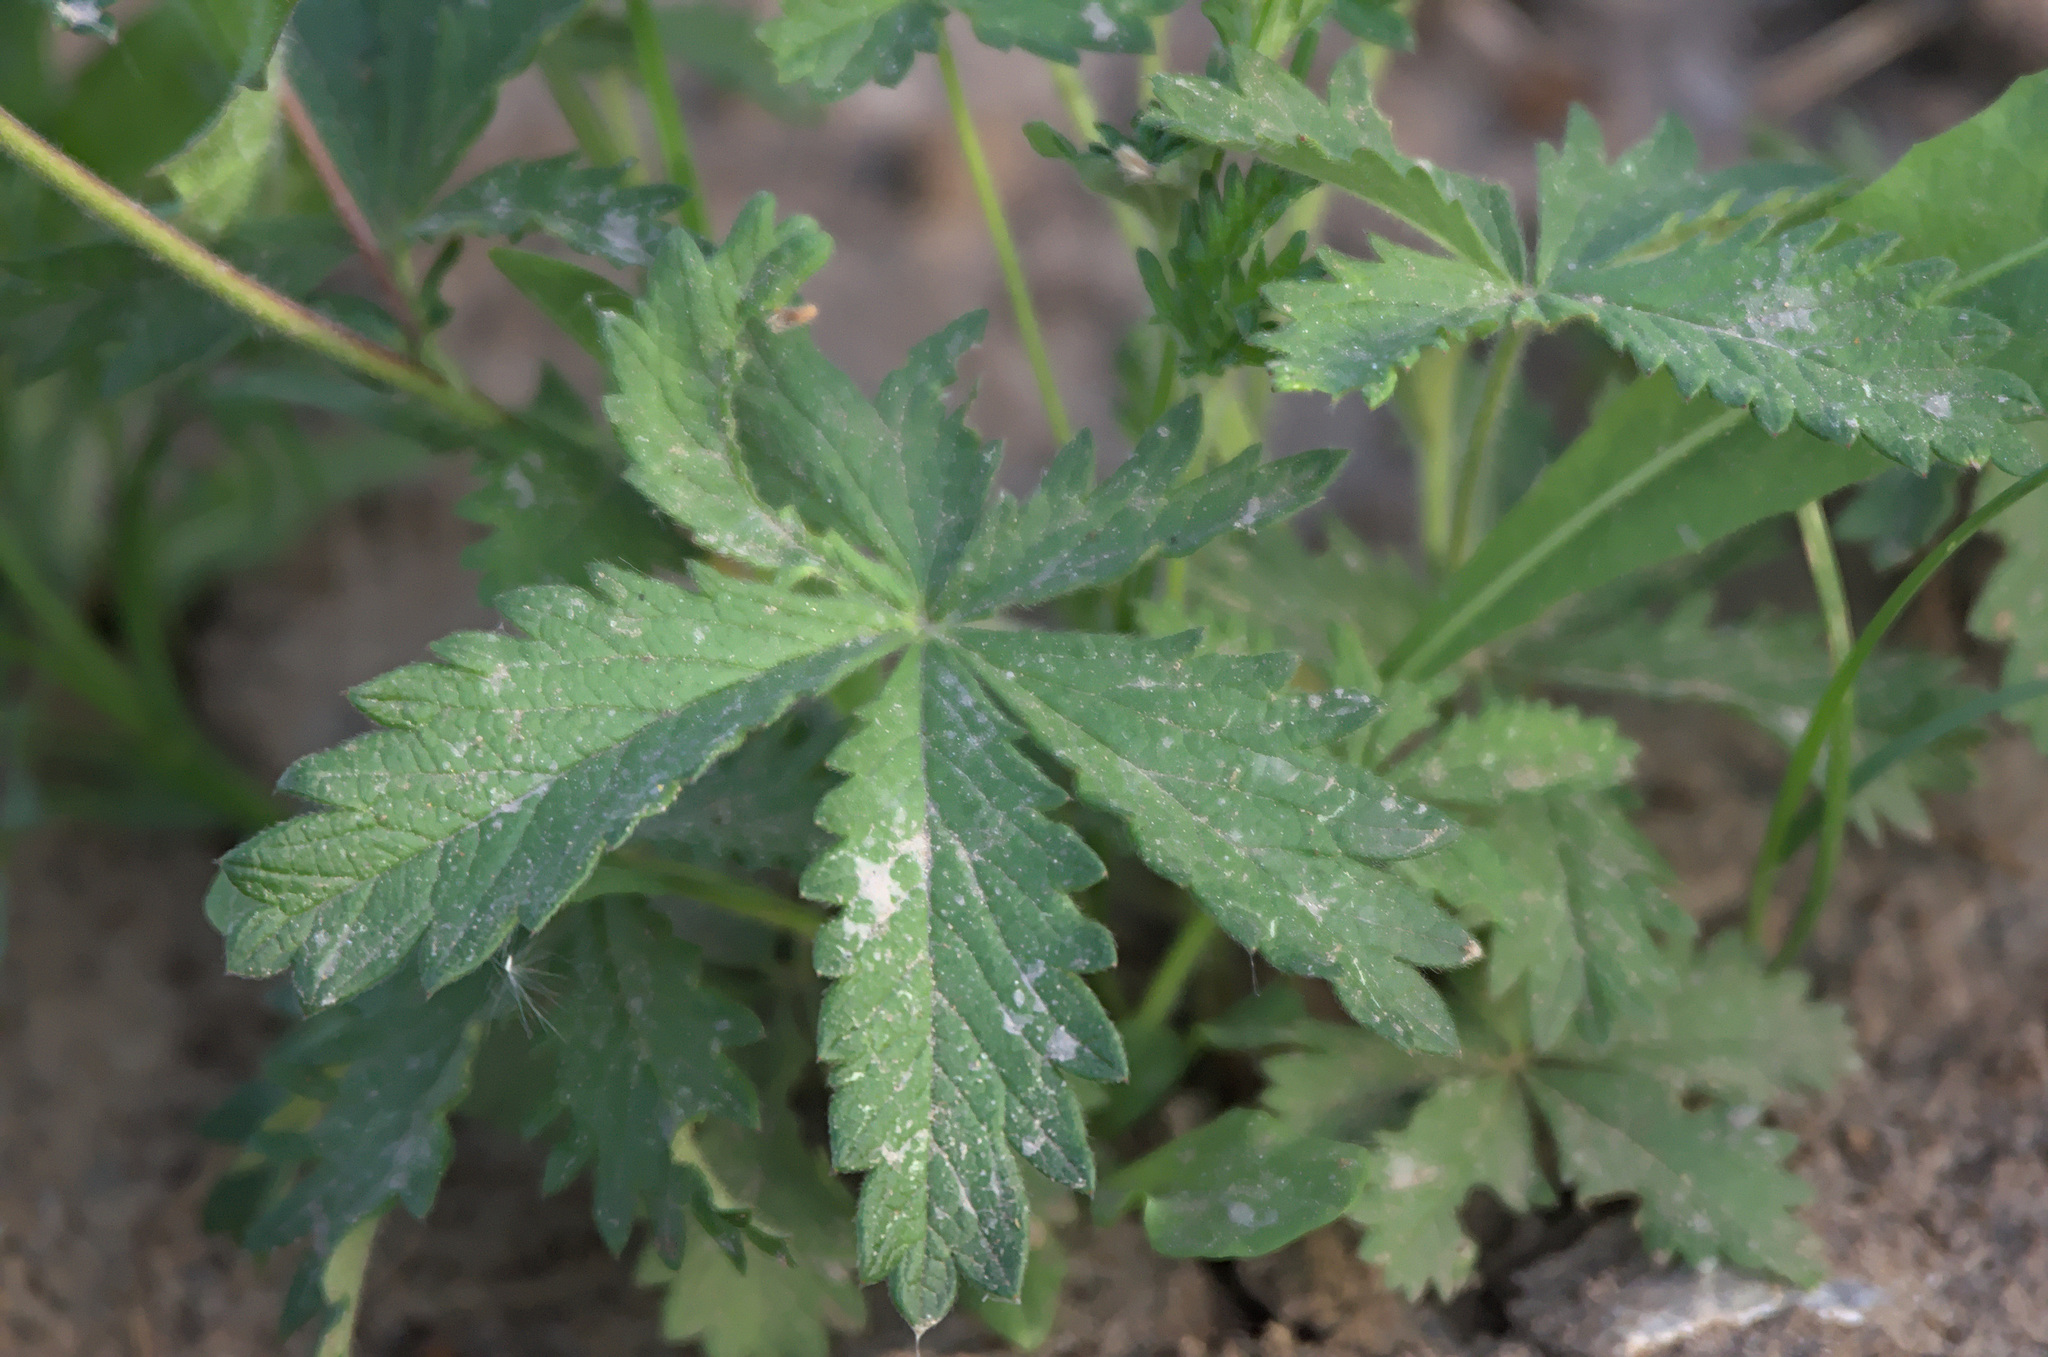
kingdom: Plantae
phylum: Tracheophyta
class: Magnoliopsida
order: Rosales
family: Rosaceae
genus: Potentilla
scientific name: Potentilla chrysantha
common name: Thuringian cinquefoil
